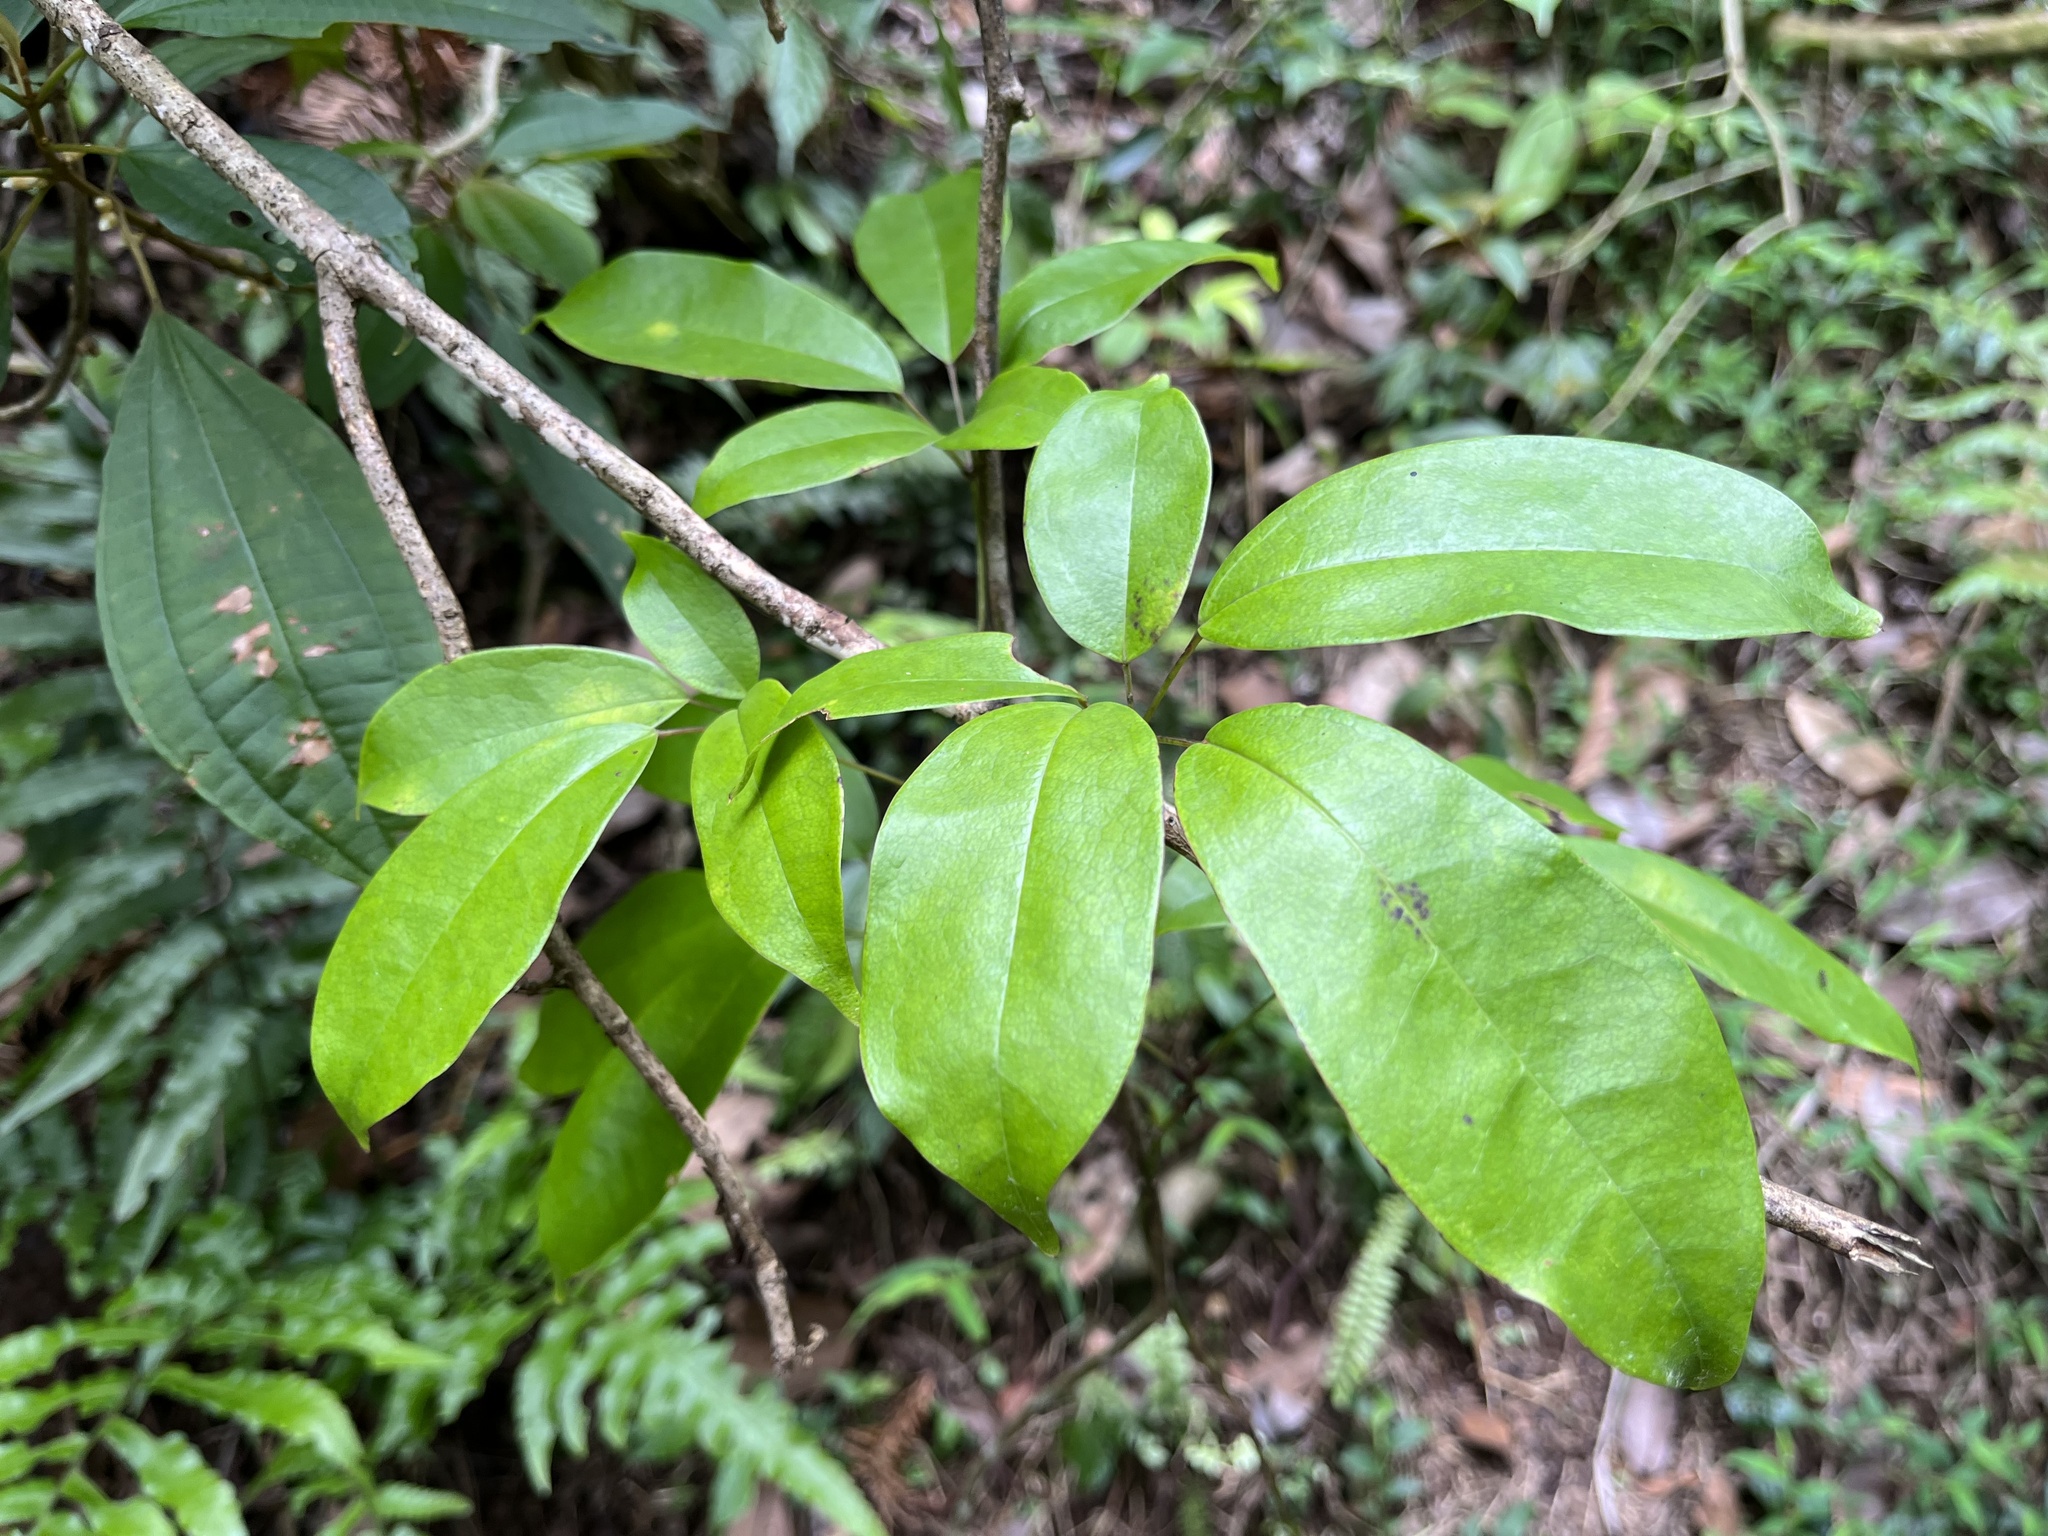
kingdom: Plantae
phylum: Tracheophyta
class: Magnoliopsida
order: Ranunculales
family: Lardizabalaceae
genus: Stauntonia
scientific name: Stauntonia obovatifoliola
